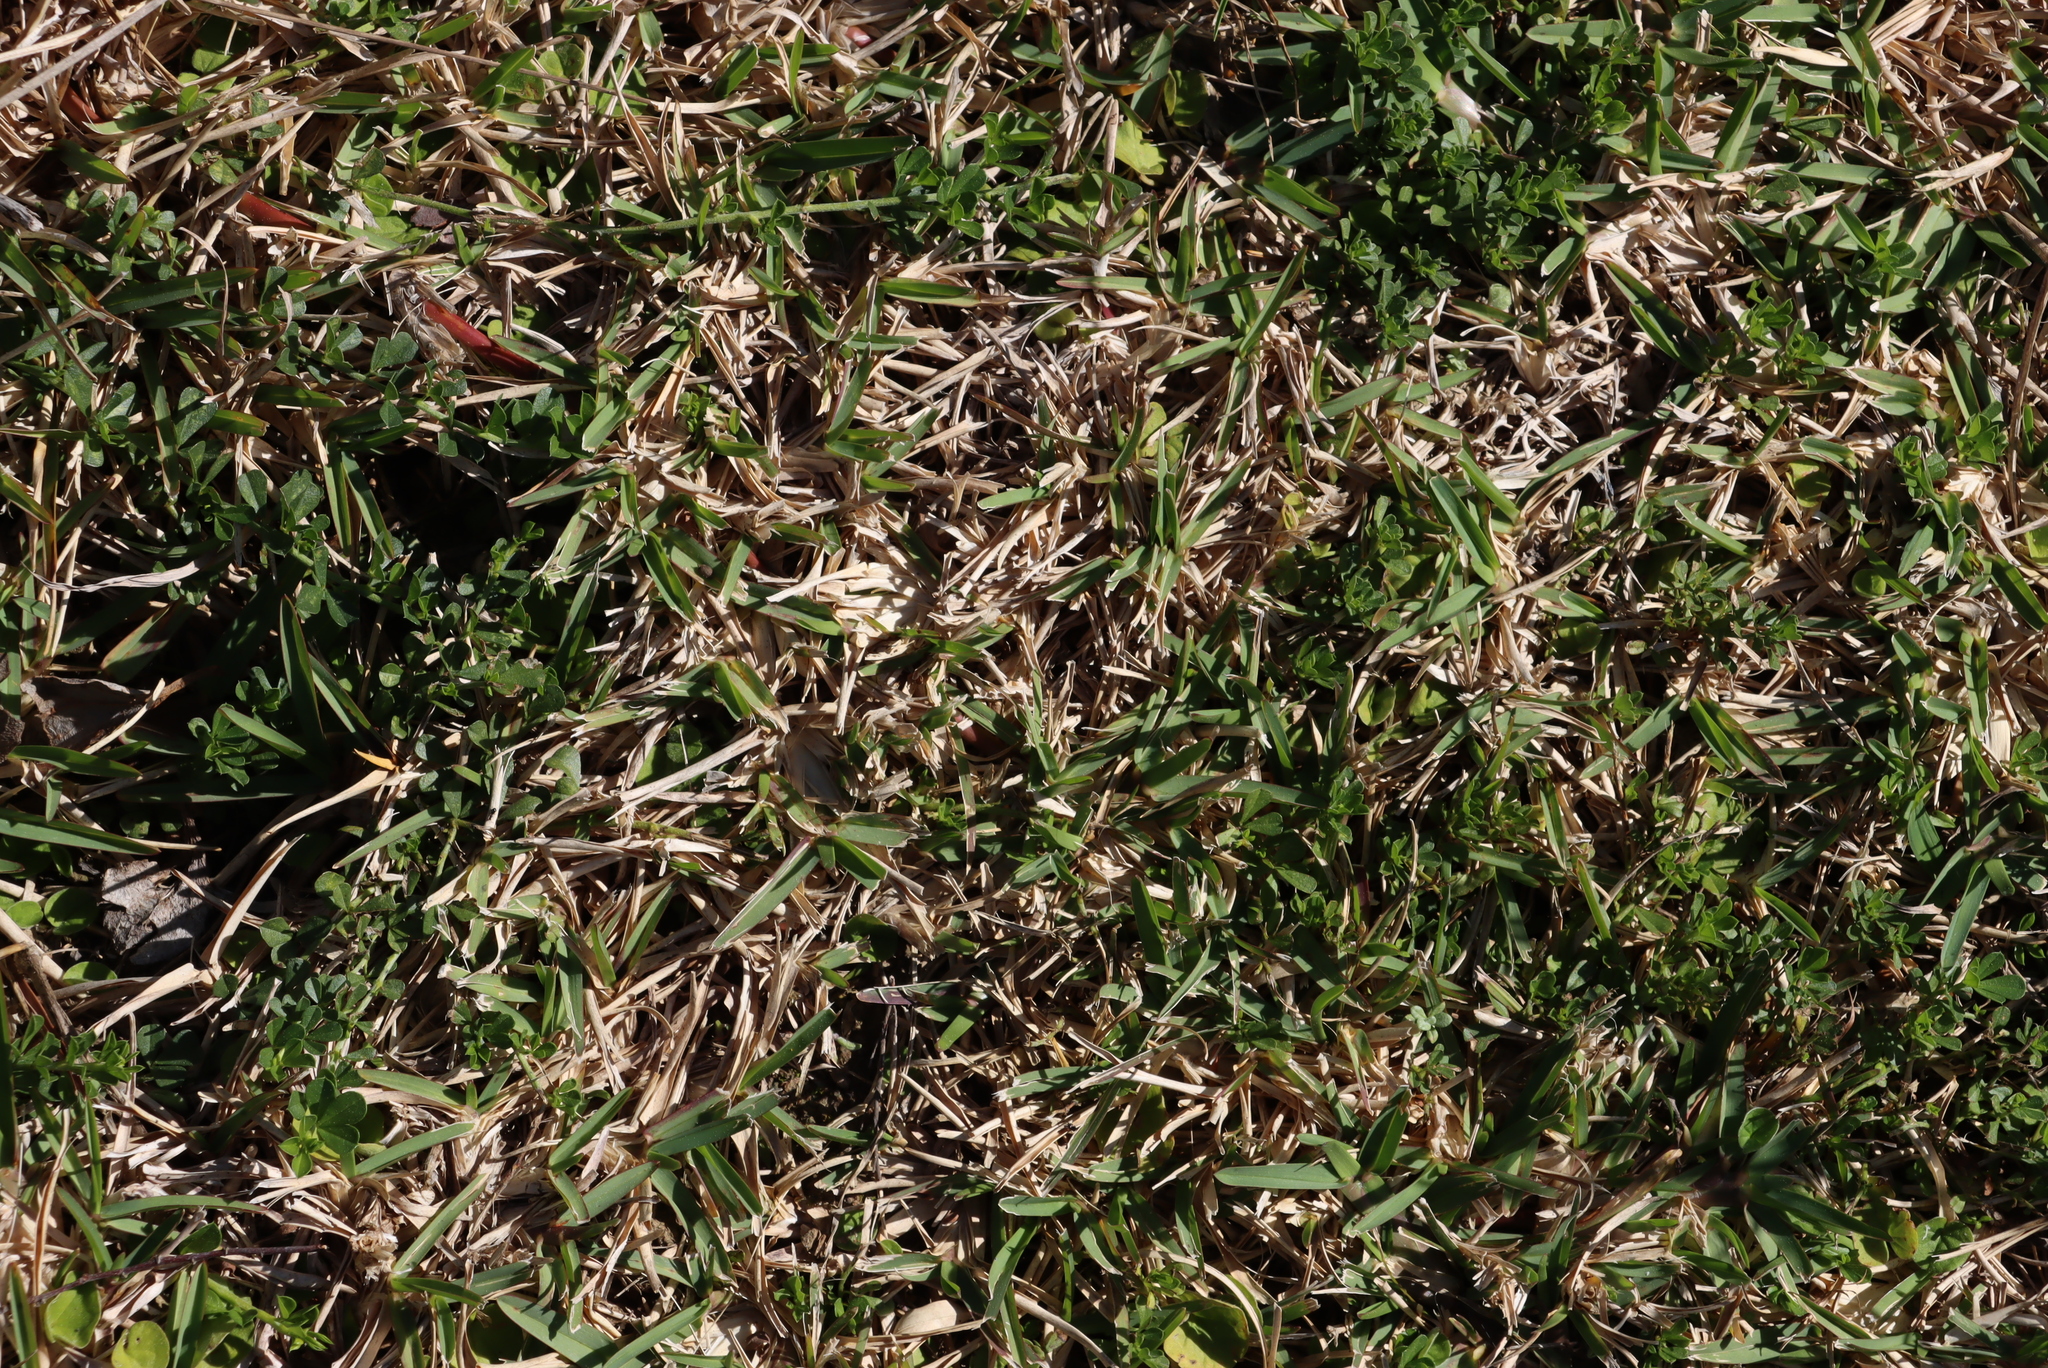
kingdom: Plantae
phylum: Tracheophyta
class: Liliopsida
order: Poales
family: Poaceae
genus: Stenotaphrum
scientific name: Stenotaphrum secundatum
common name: St. augustine grass
